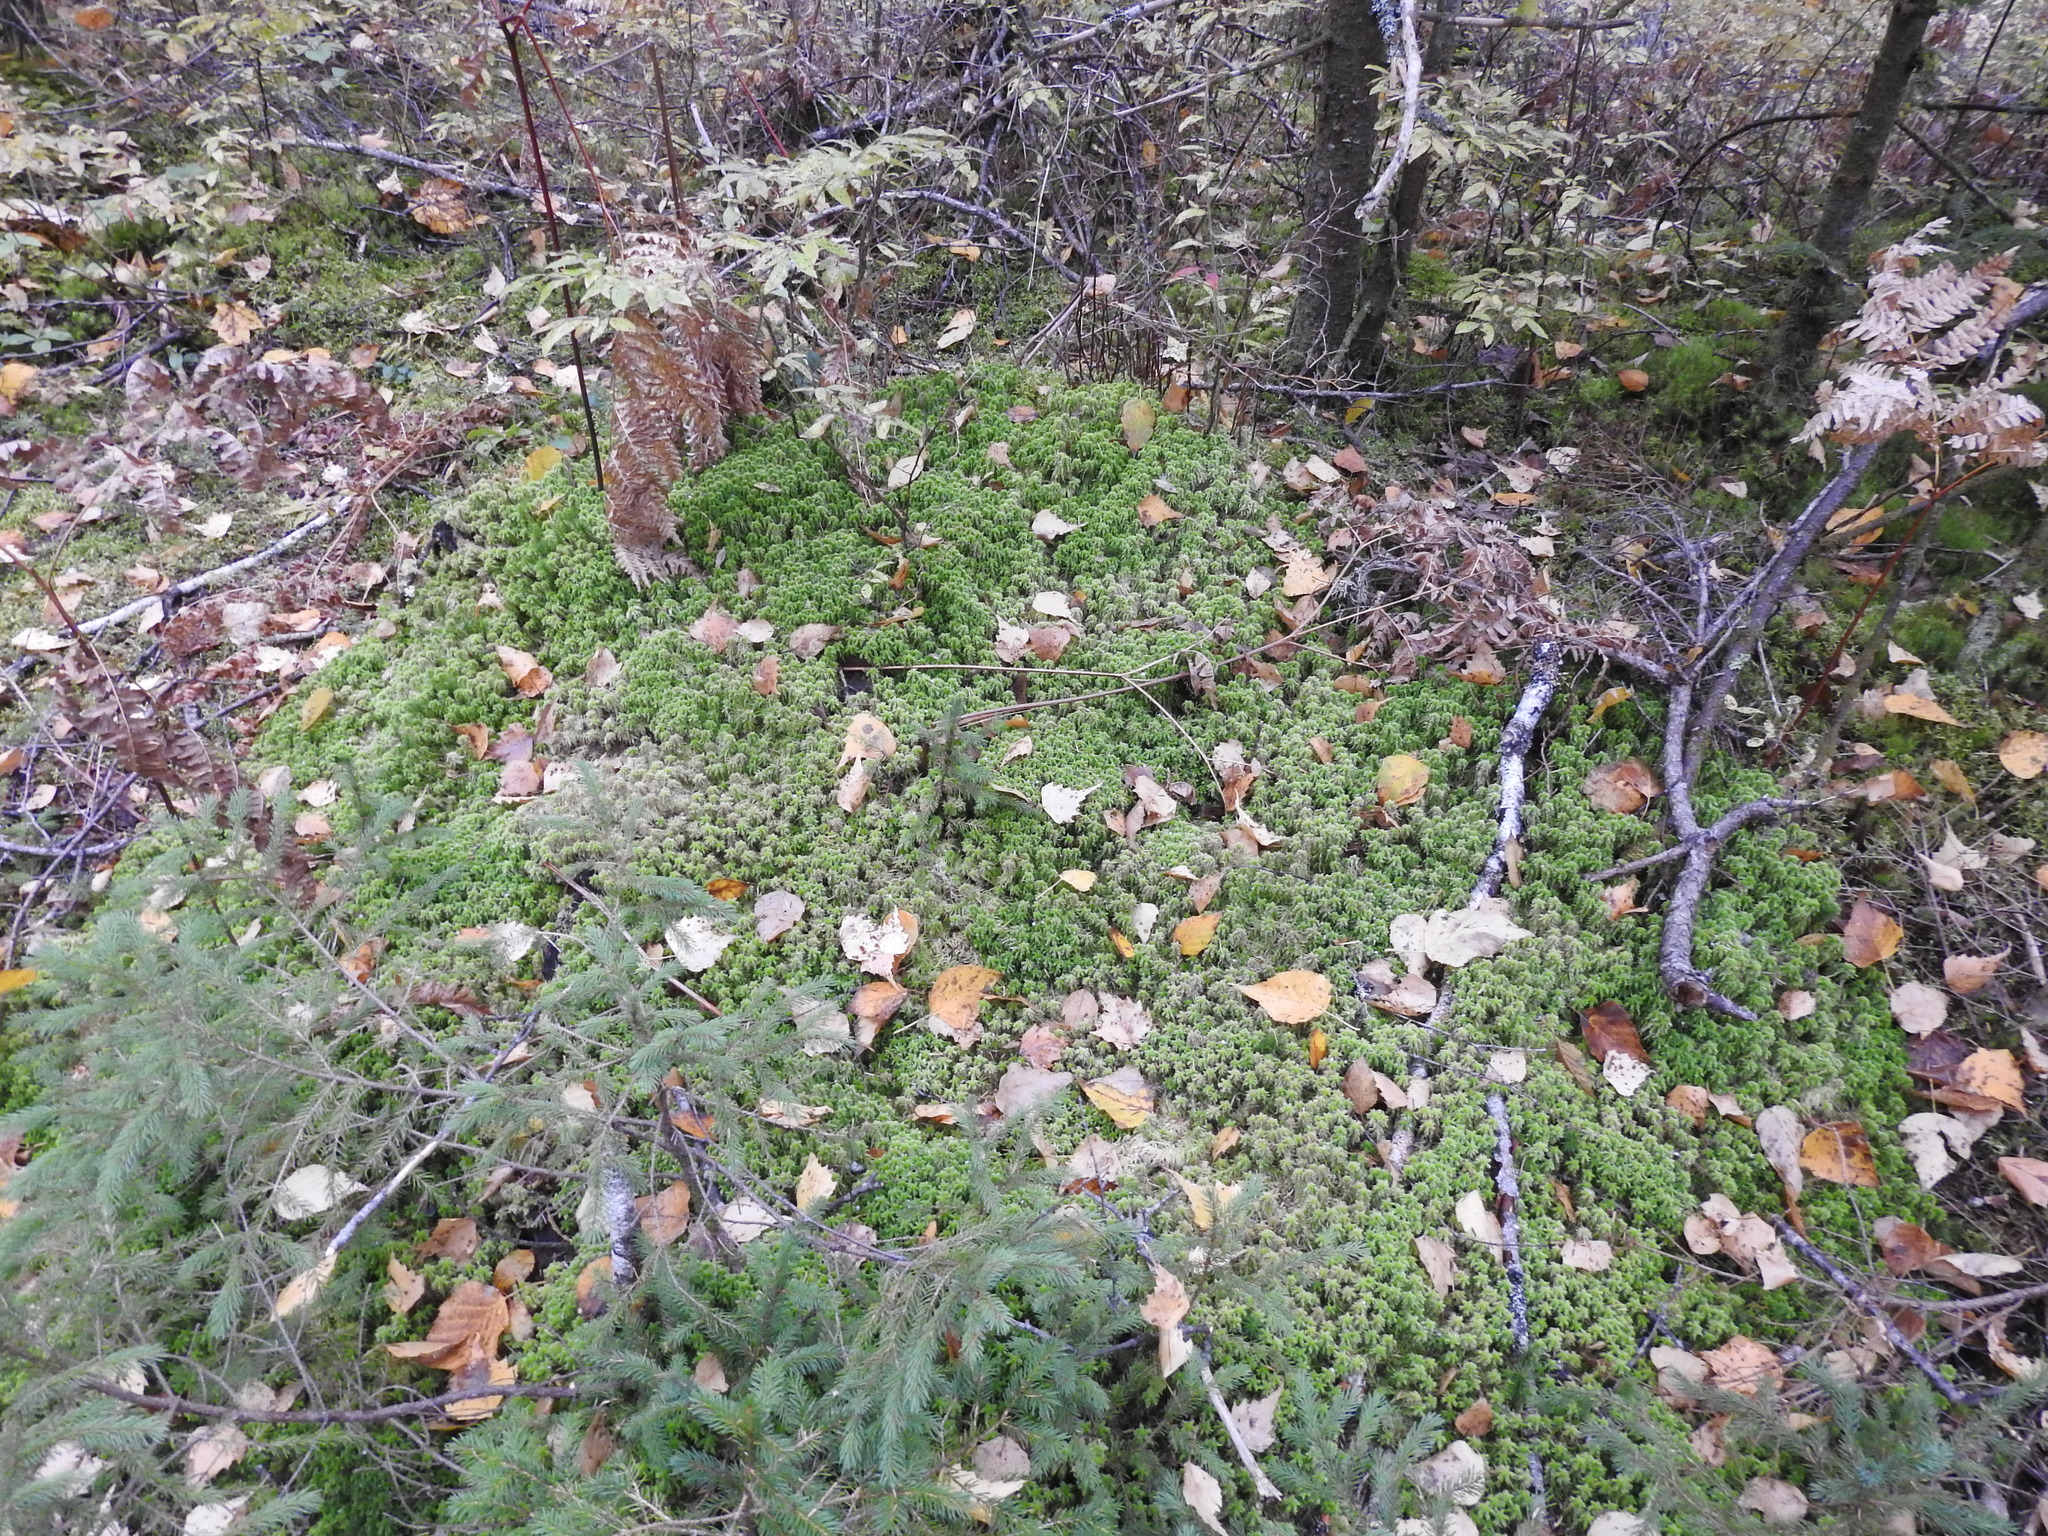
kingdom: Plantae
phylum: Bryophyta
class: Sphagnopsida
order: Sphagnales
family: Sphagnaceae
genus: Sphagnum
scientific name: Sphagnum quinquefarium
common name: Five-ranked peat moss
